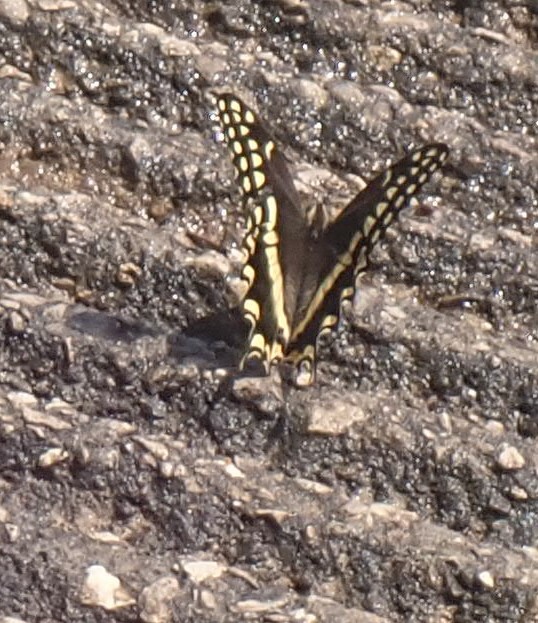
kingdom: Animalia
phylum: Arthropoda
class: Insecta
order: Lepidoptera
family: Papilionidae
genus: Papilio
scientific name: Papilio palamedes
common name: Palamedes swallowtail
